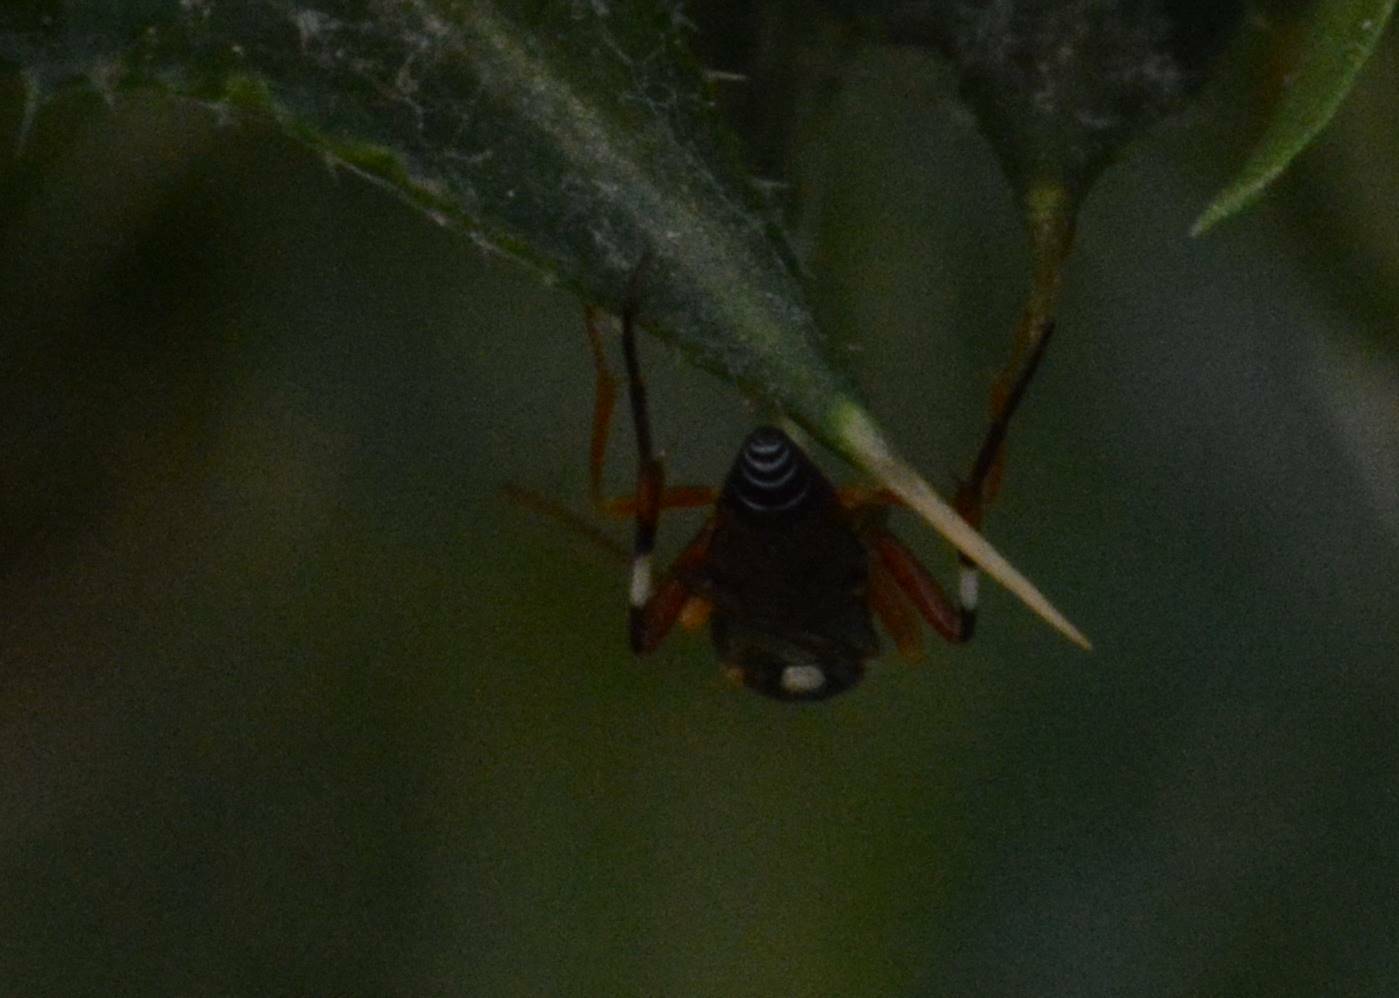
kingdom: Animalia
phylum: Arthropoda
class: Insecta
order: Hymenoptera
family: Ichneumonidae
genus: Diplazon
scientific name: Diplazon laetatorius
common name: Parasitoid wasp
